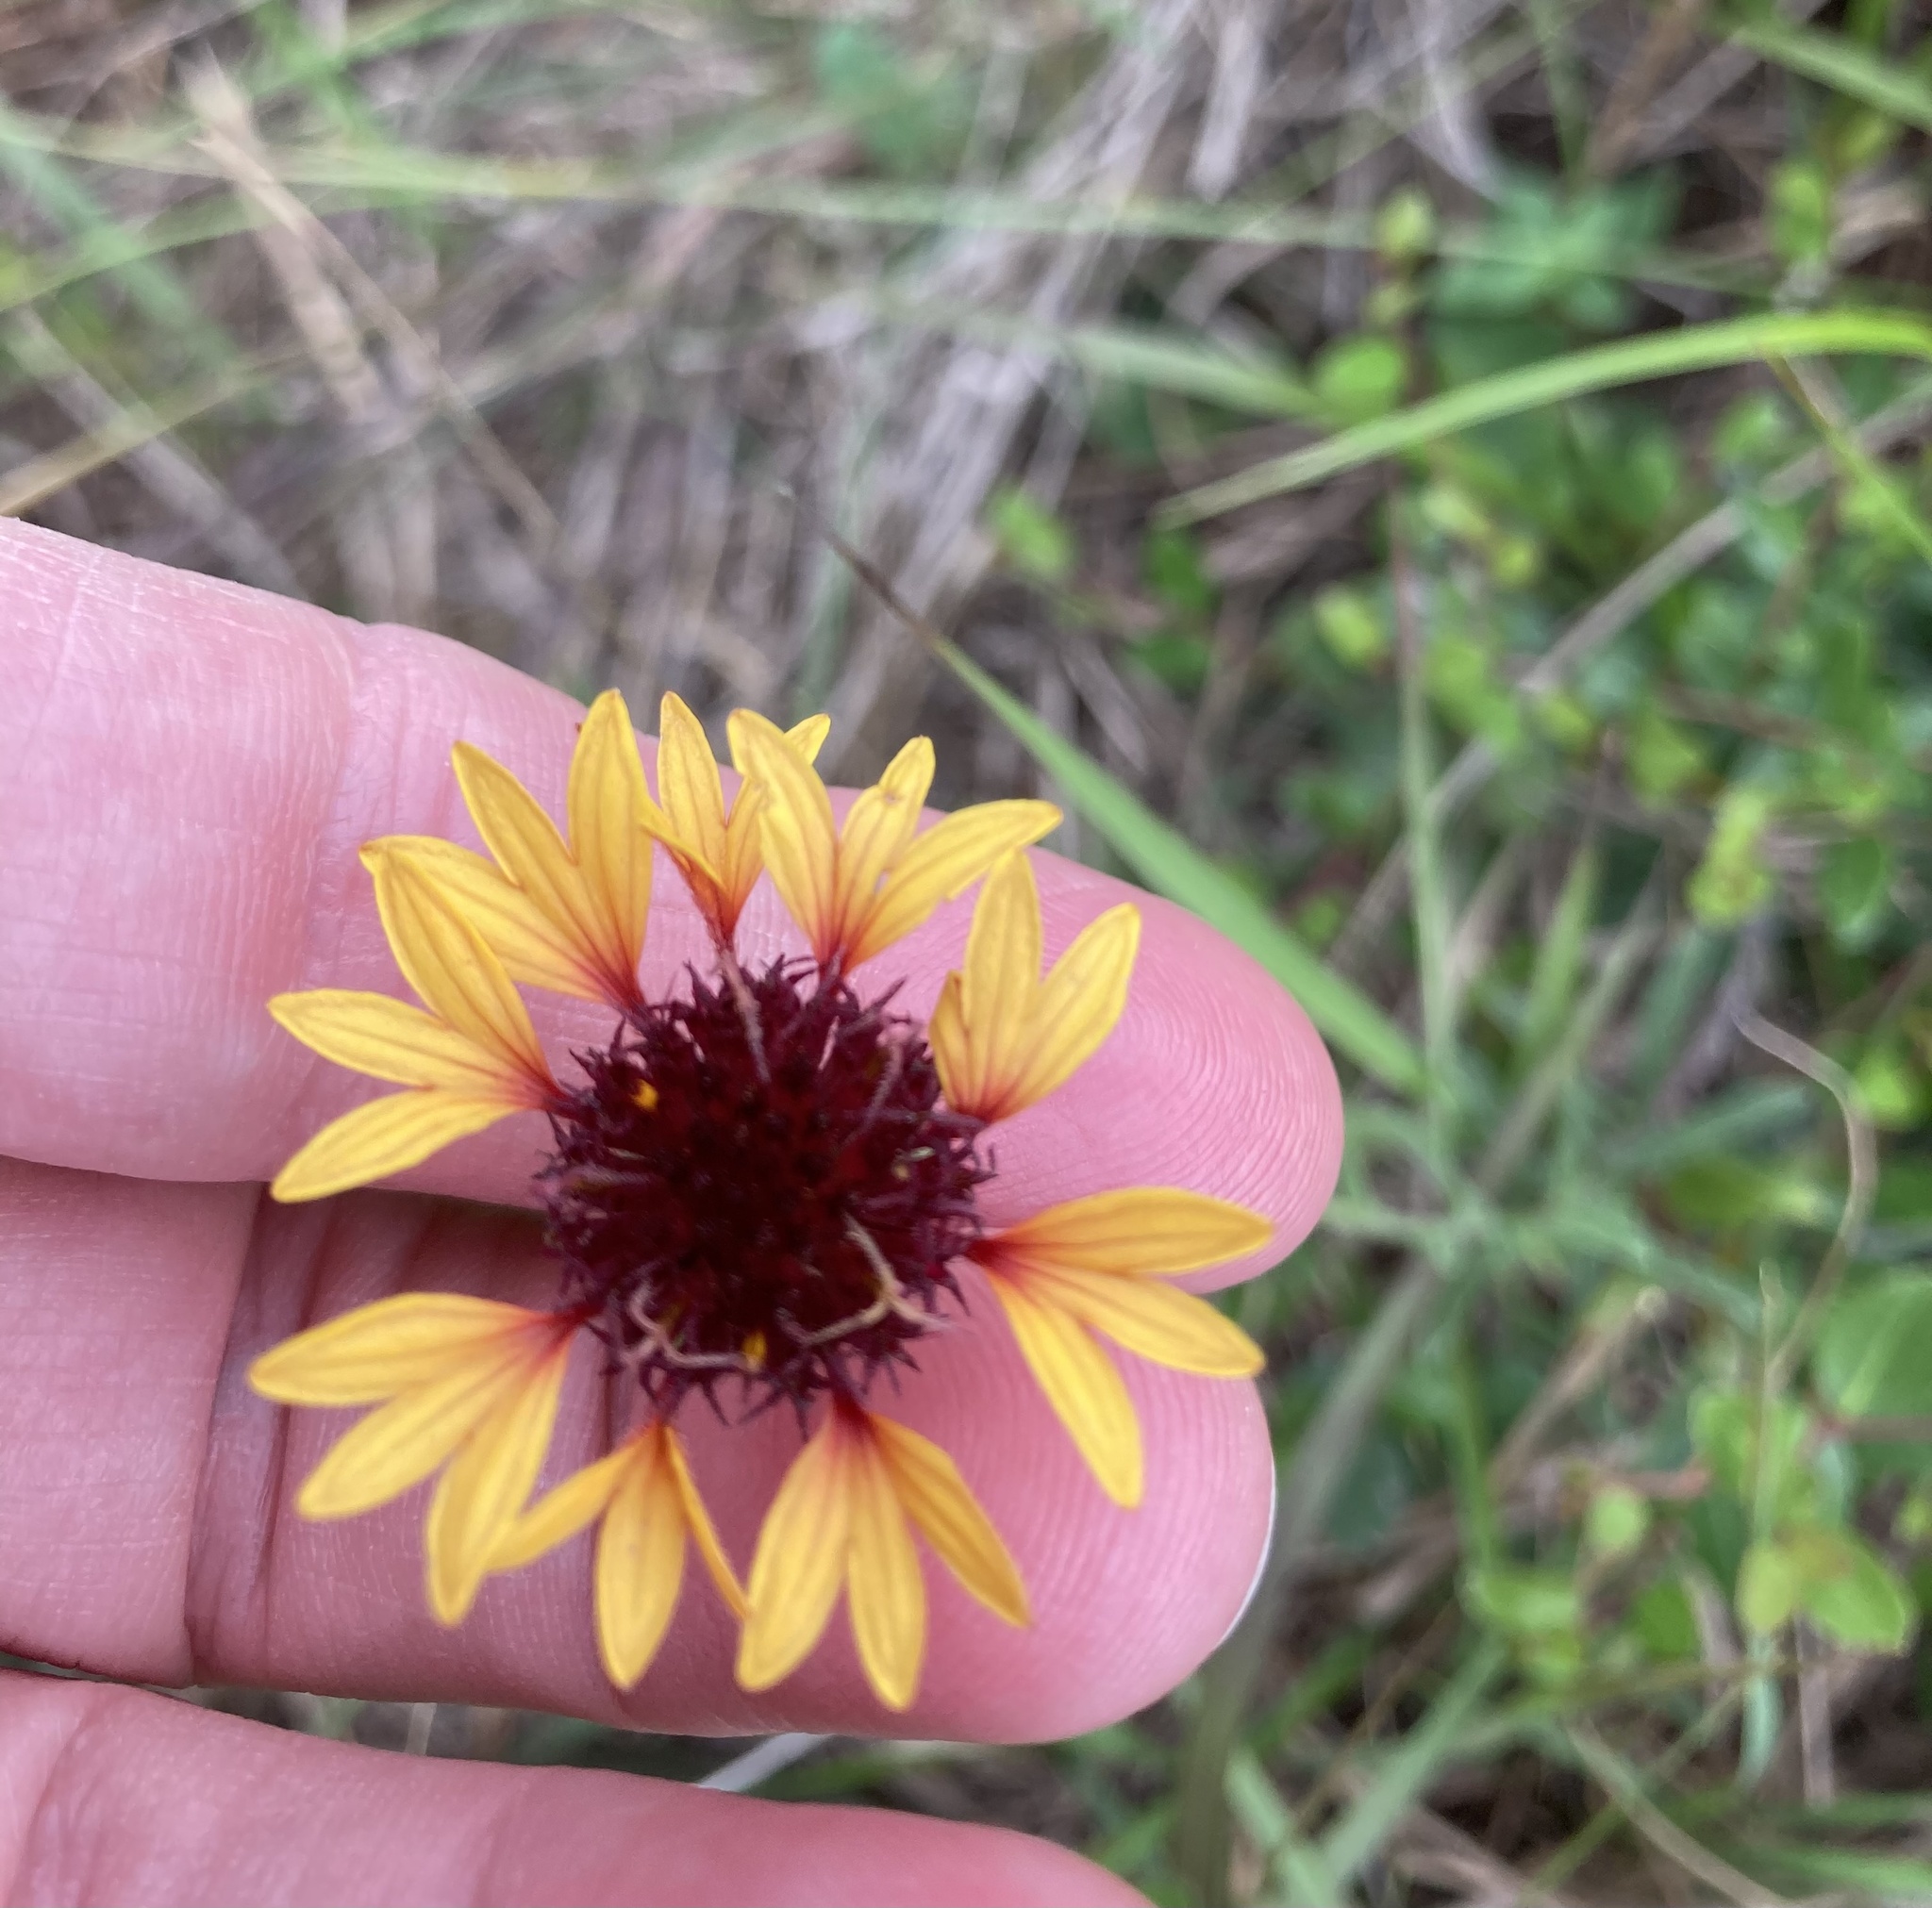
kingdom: Plantae
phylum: Tracheophyta
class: Magnoliopsida
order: Asterales
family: Asteraceae
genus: Gaillardia
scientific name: Gaillardia aestivalis
